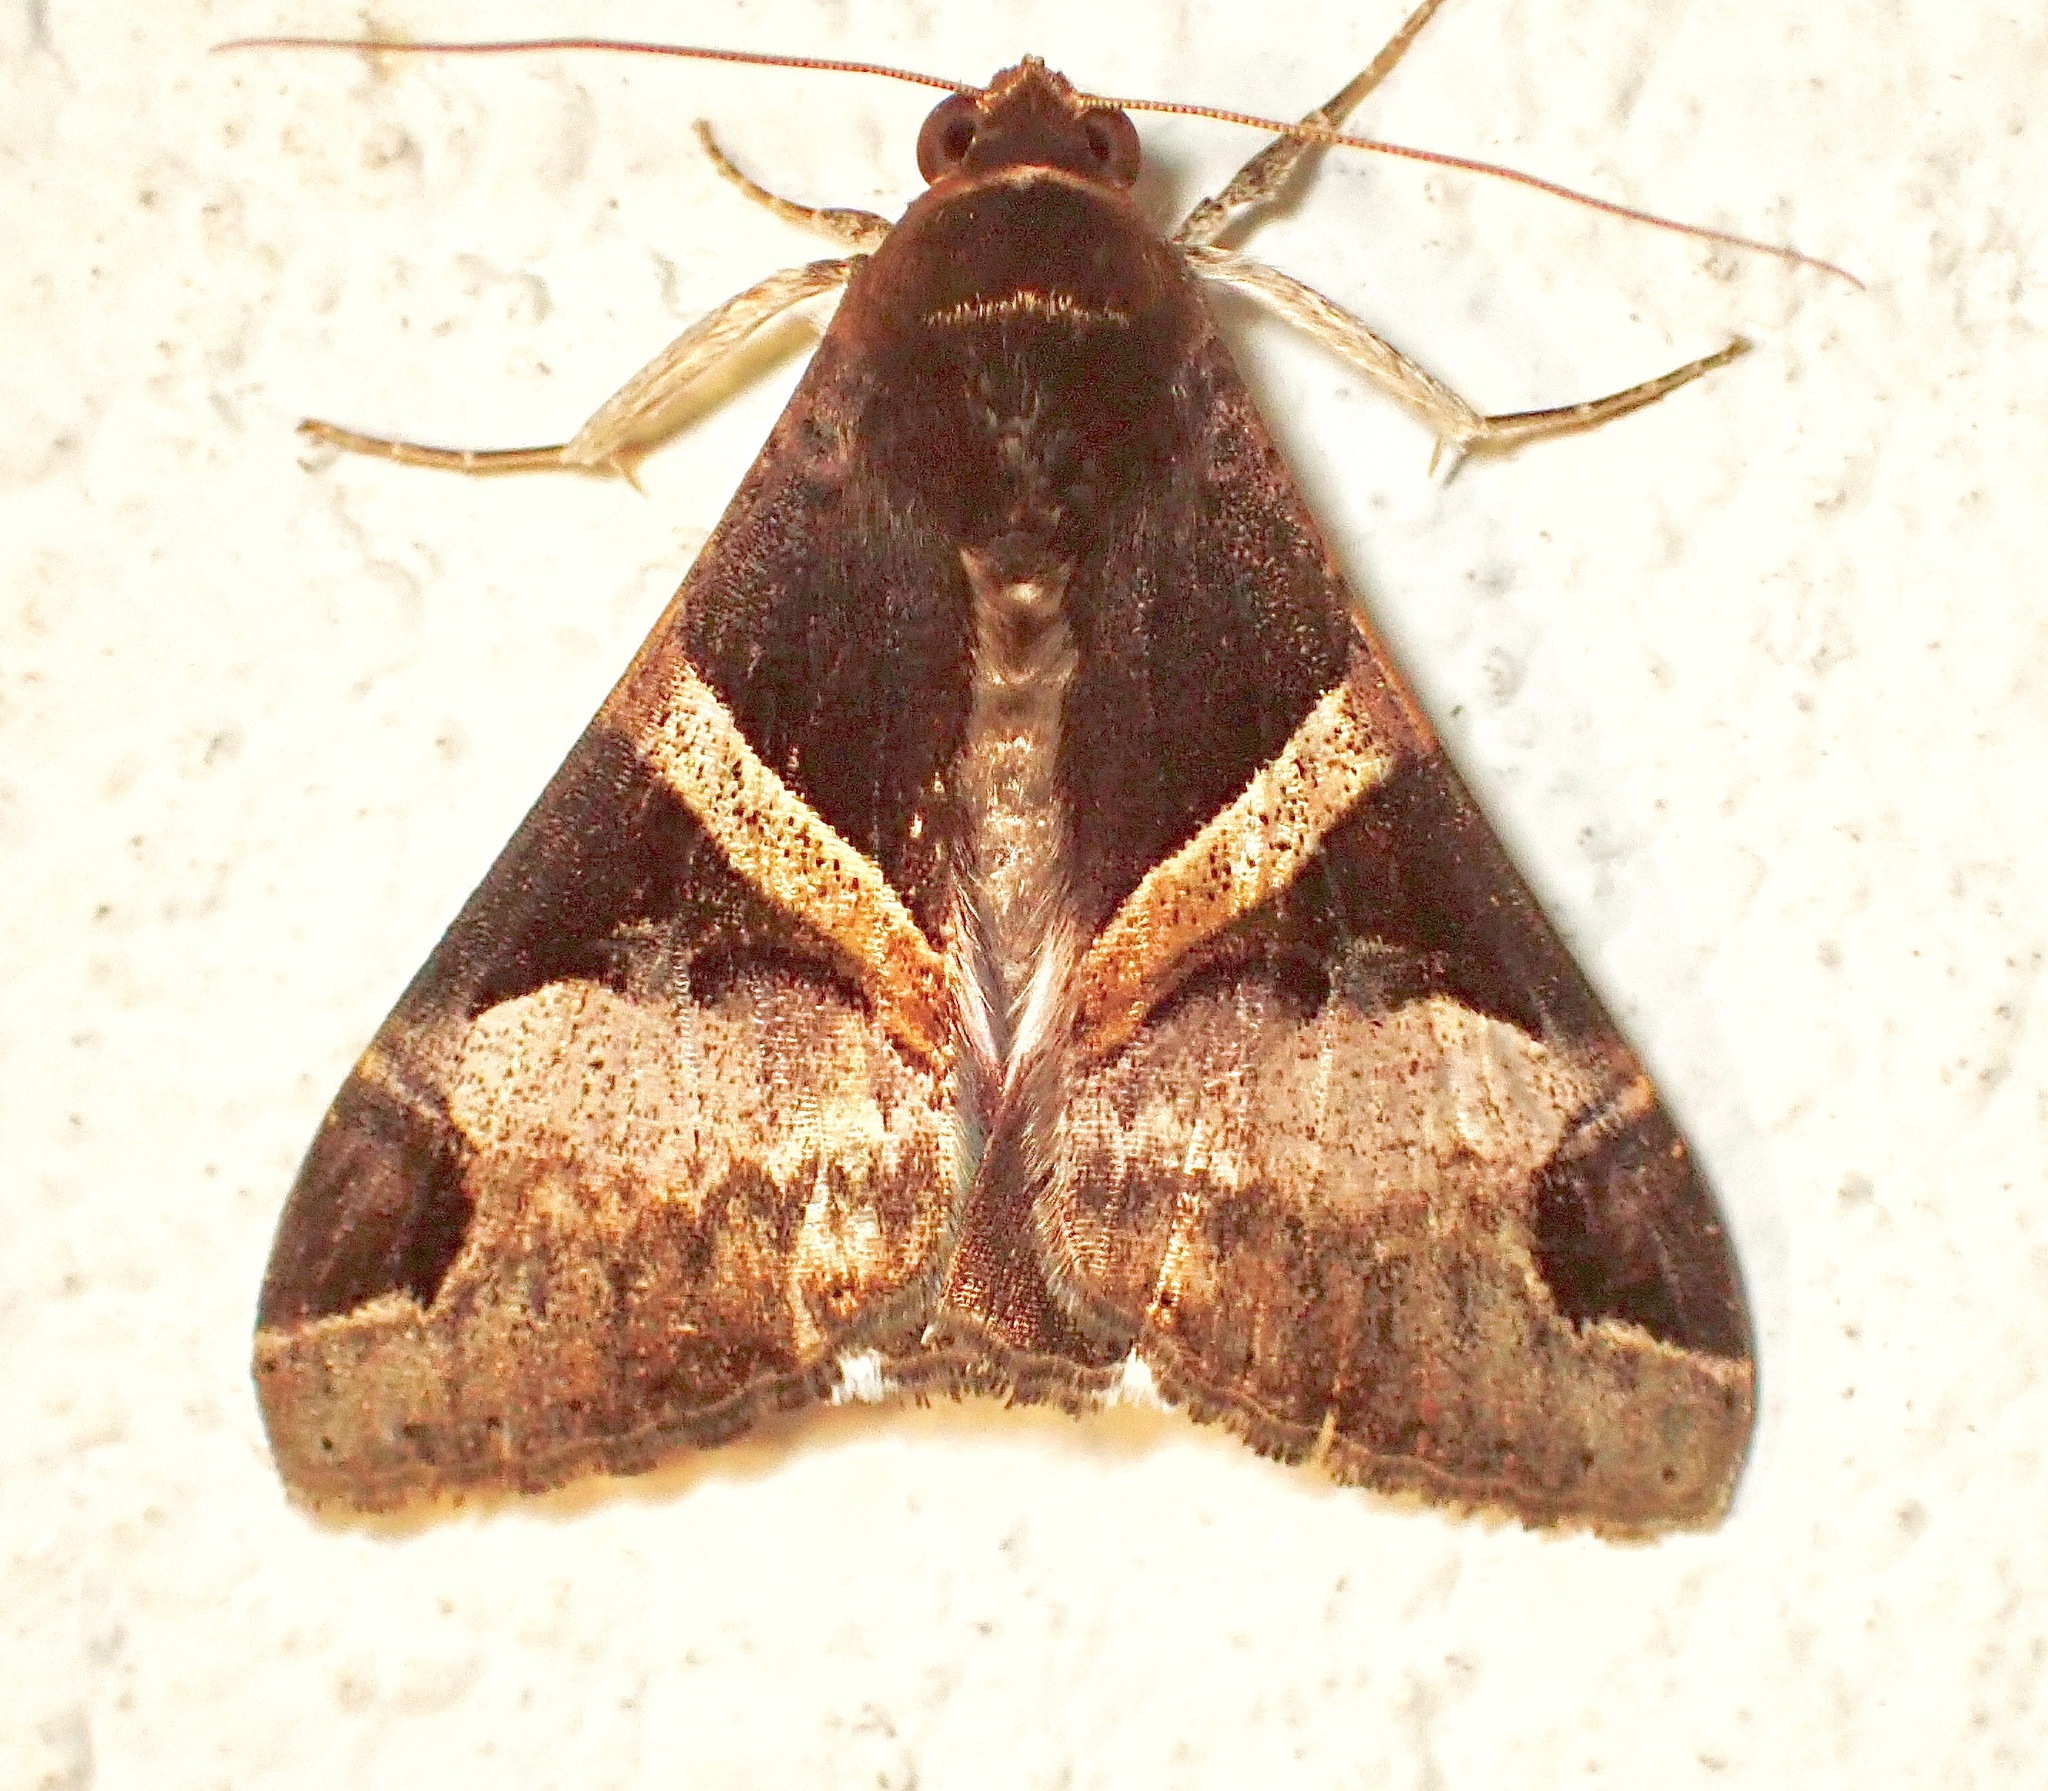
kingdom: Animalia
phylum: Arthropoda
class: Insecta
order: Lepidoptera
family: Erebidae
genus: Melipotis
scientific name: Melipotis fasciolaris
